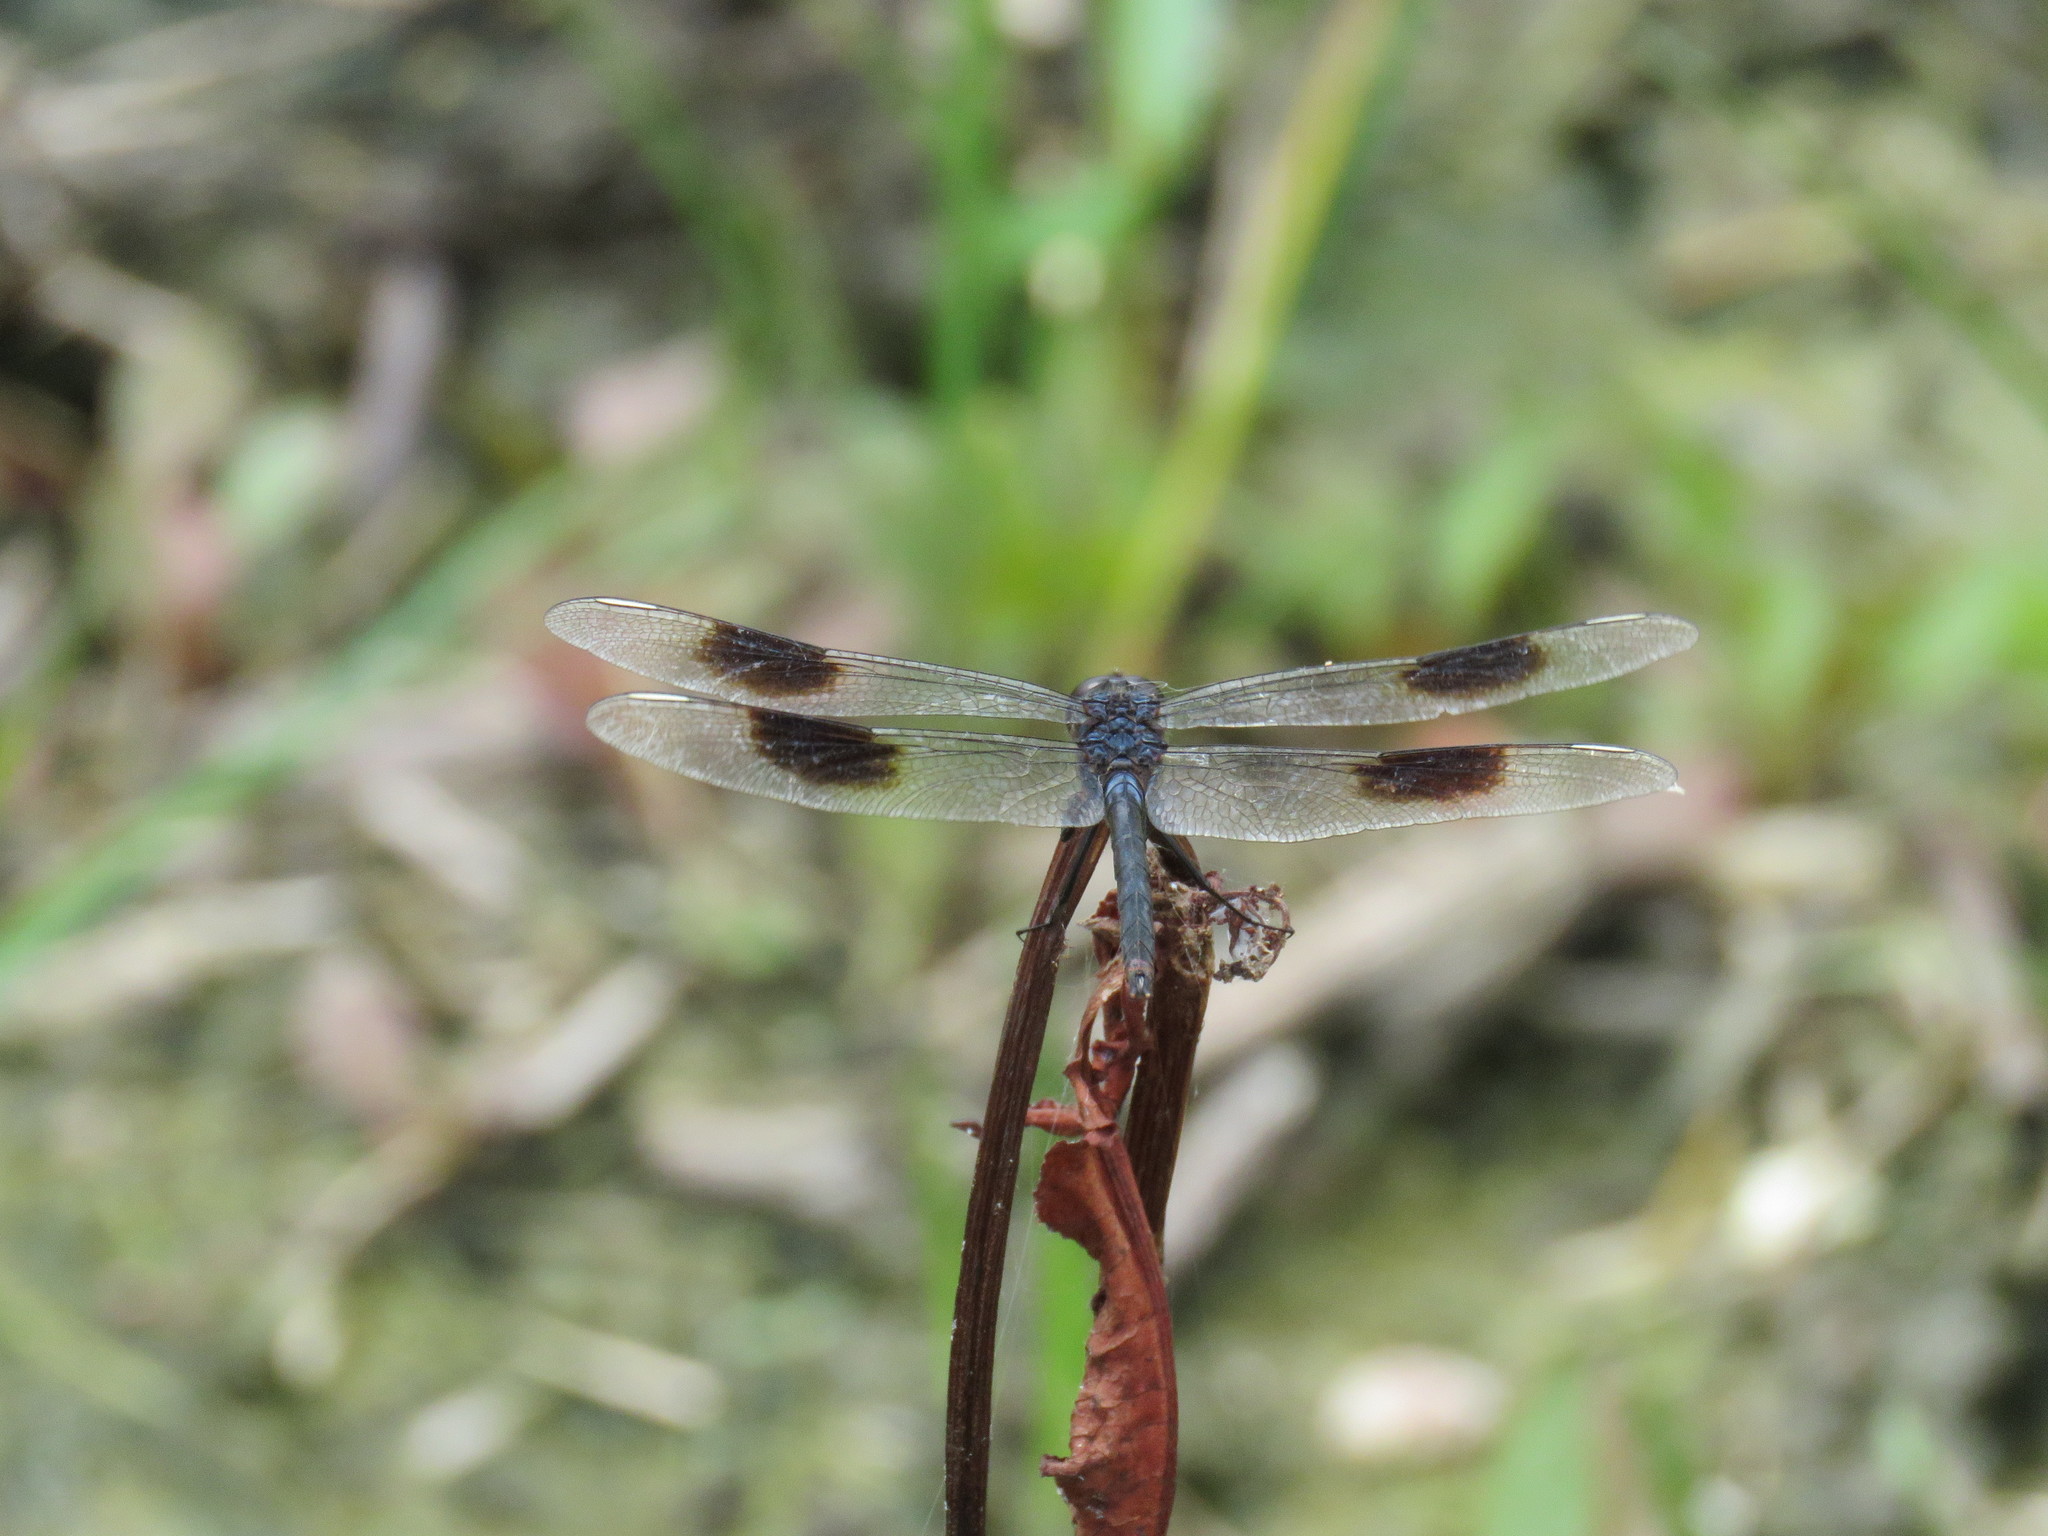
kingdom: Animalia
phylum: Arthropoda
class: Insecta
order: Odonata
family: Libellulidae
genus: Brachymesia
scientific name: Brachymesia gravida
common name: Four-spotted pennant
